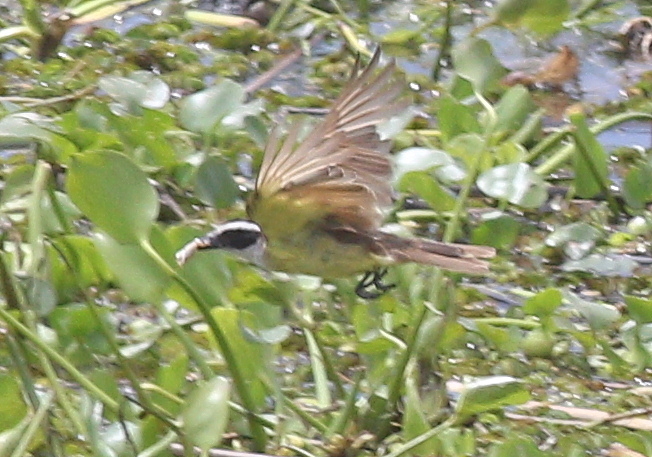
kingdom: Animalia
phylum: Chordata
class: Aves
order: Passeriformes
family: Tyrannidae
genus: Pitangus
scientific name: Pitangus sulphuratus
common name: Great kiskadee
